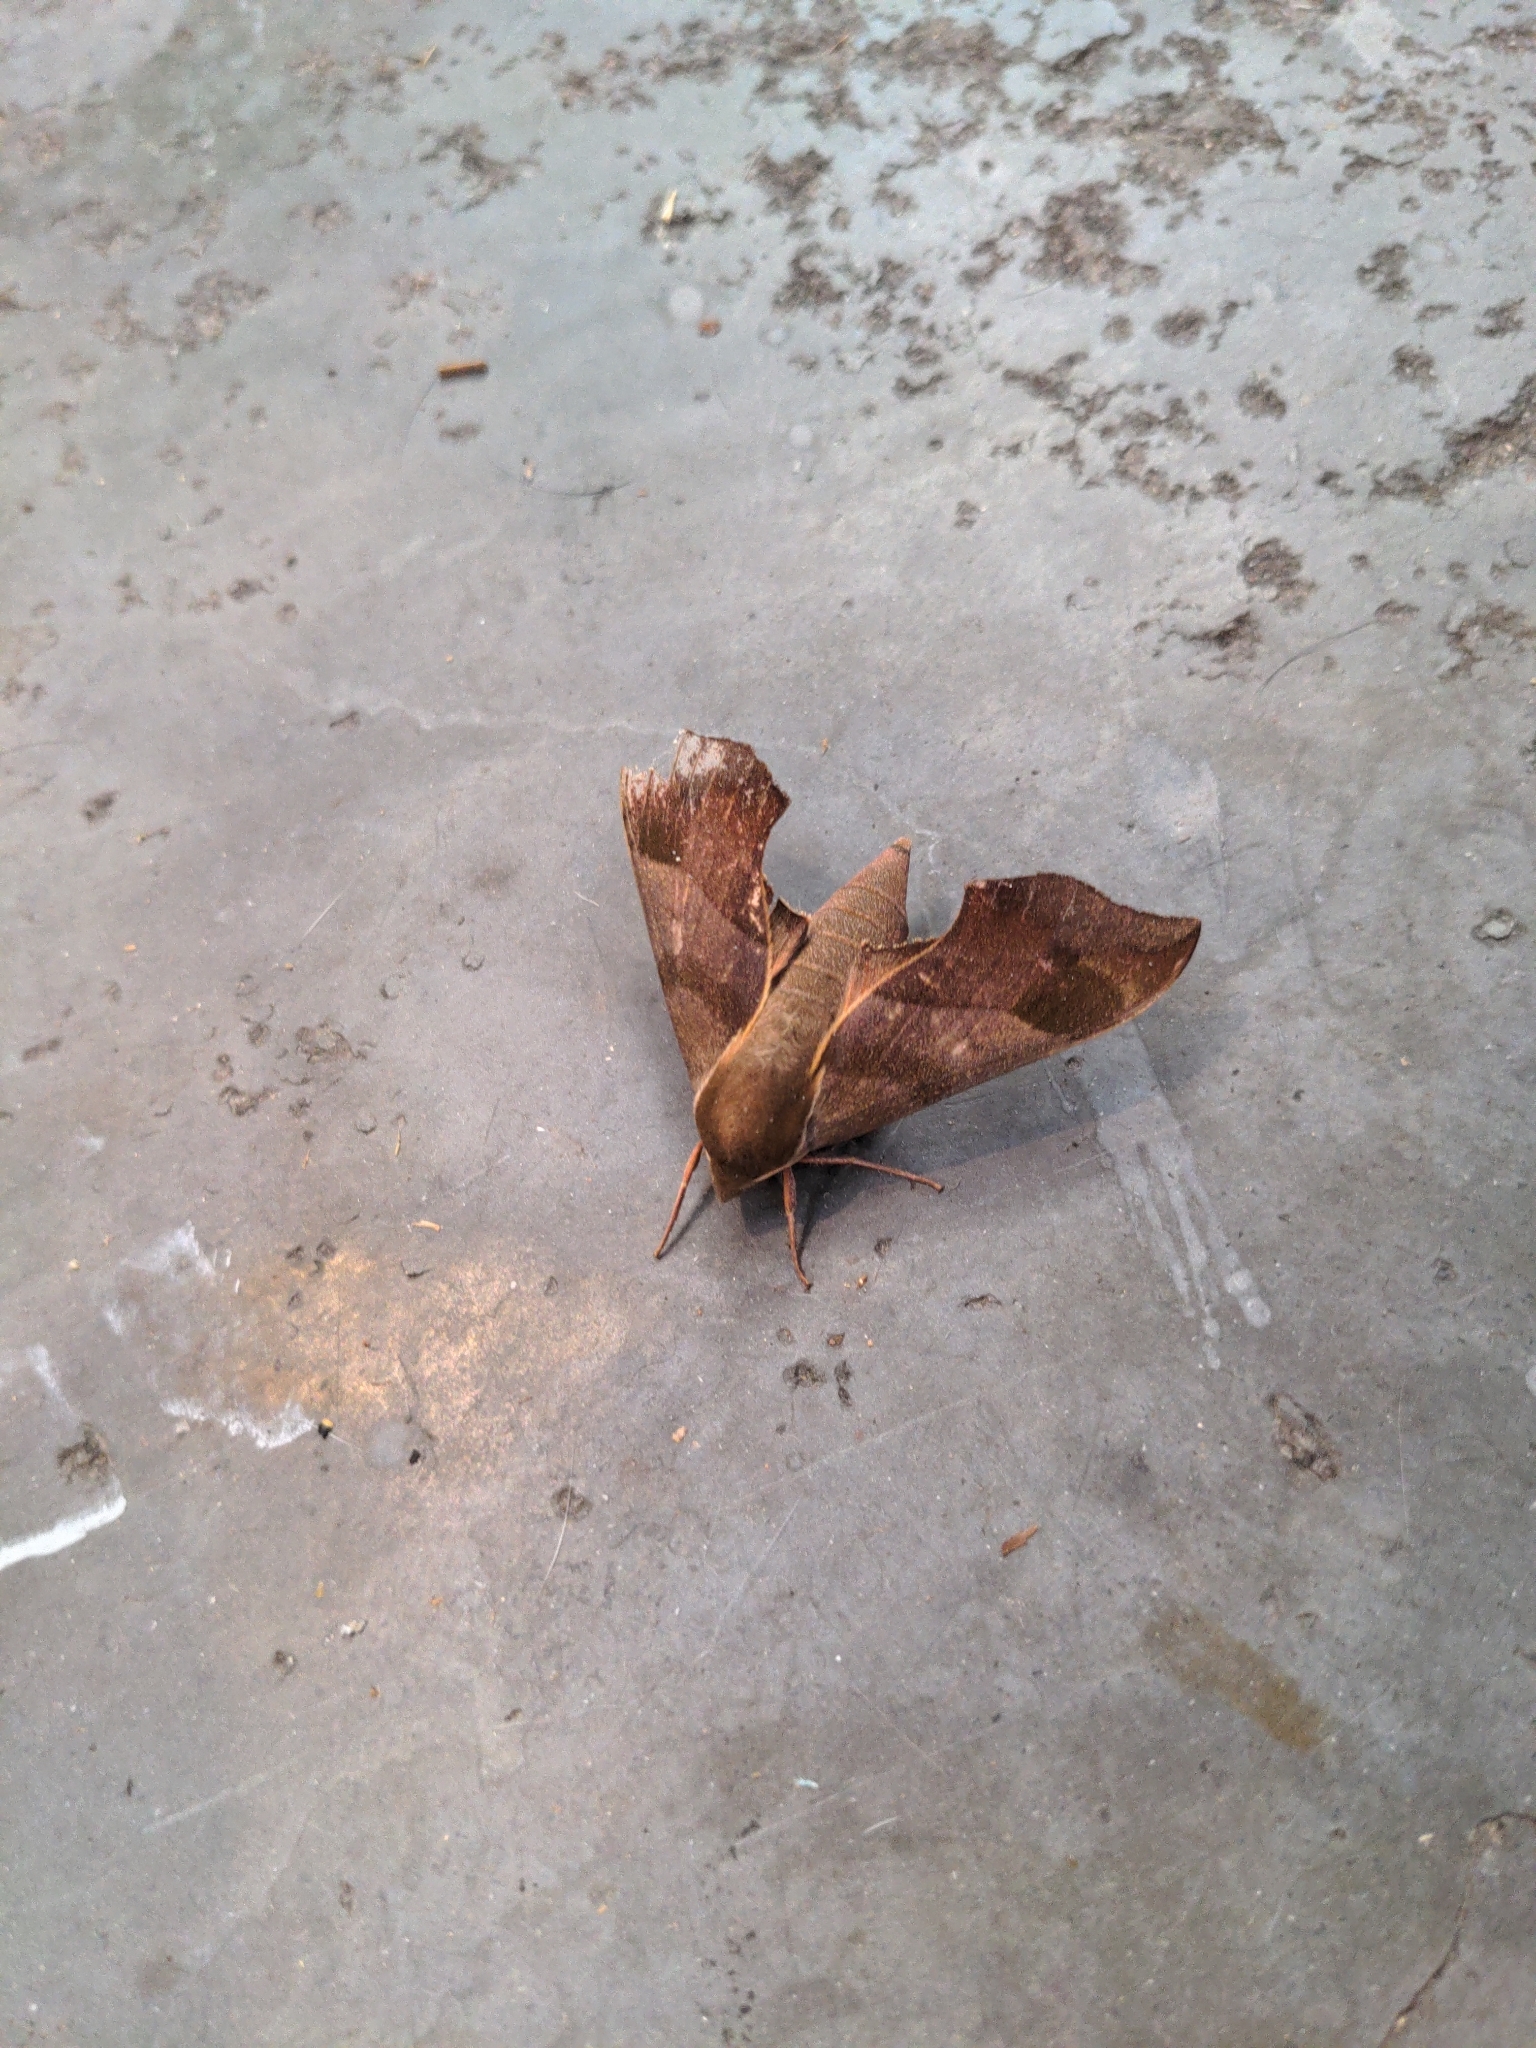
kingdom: Animalia
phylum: Arthropoda
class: Insecta
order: Lepidoptera
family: Sphingidae
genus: Darapsa
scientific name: Darapsa myron
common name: Hog sphinx
